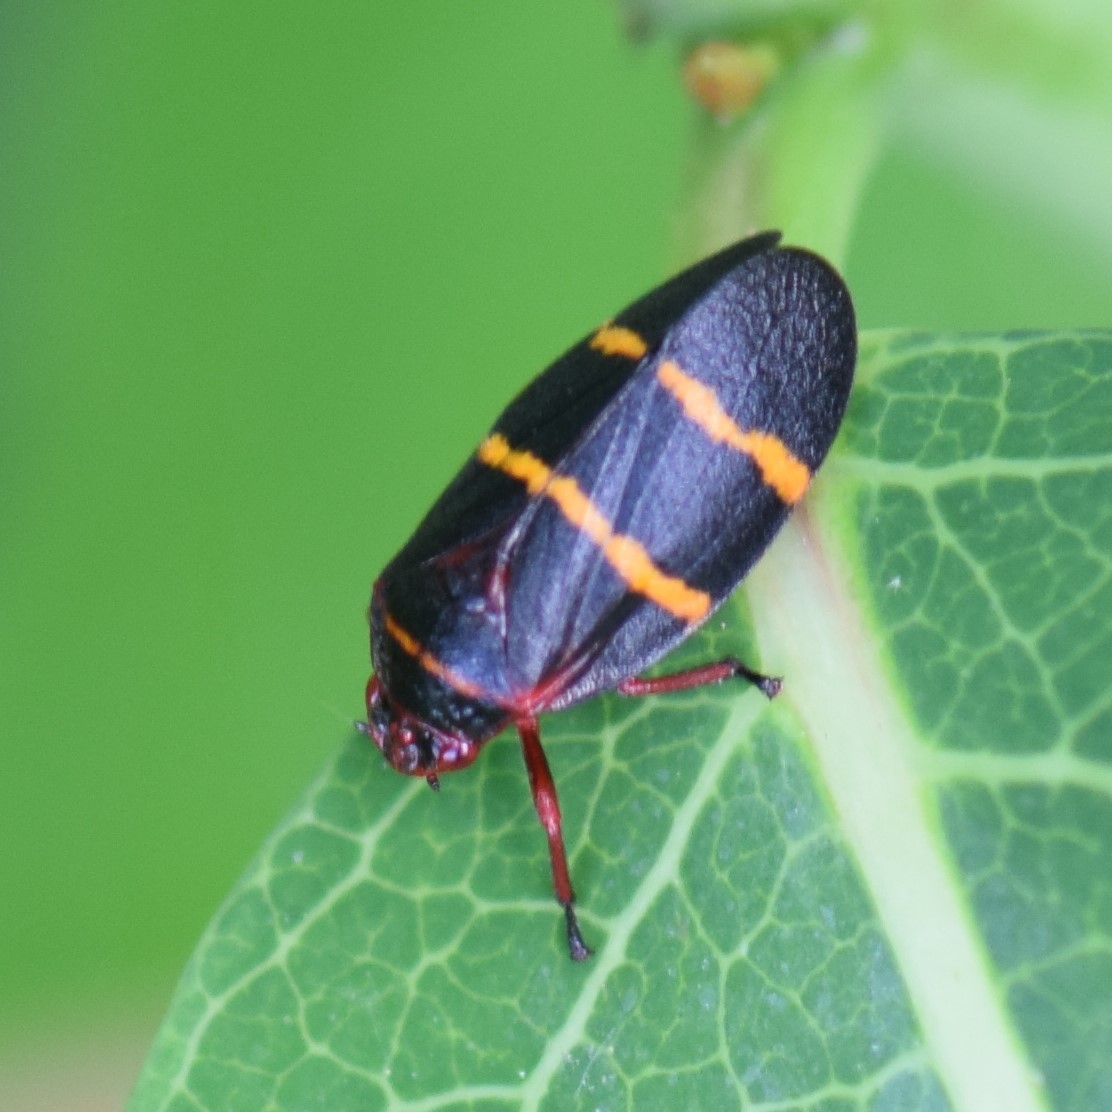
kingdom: Animalia
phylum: Arthropoda
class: Insecta
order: Hemiptera
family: Cercopidae
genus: Prosapia
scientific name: Prosapia bicincta
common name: Twolined spittlebug
